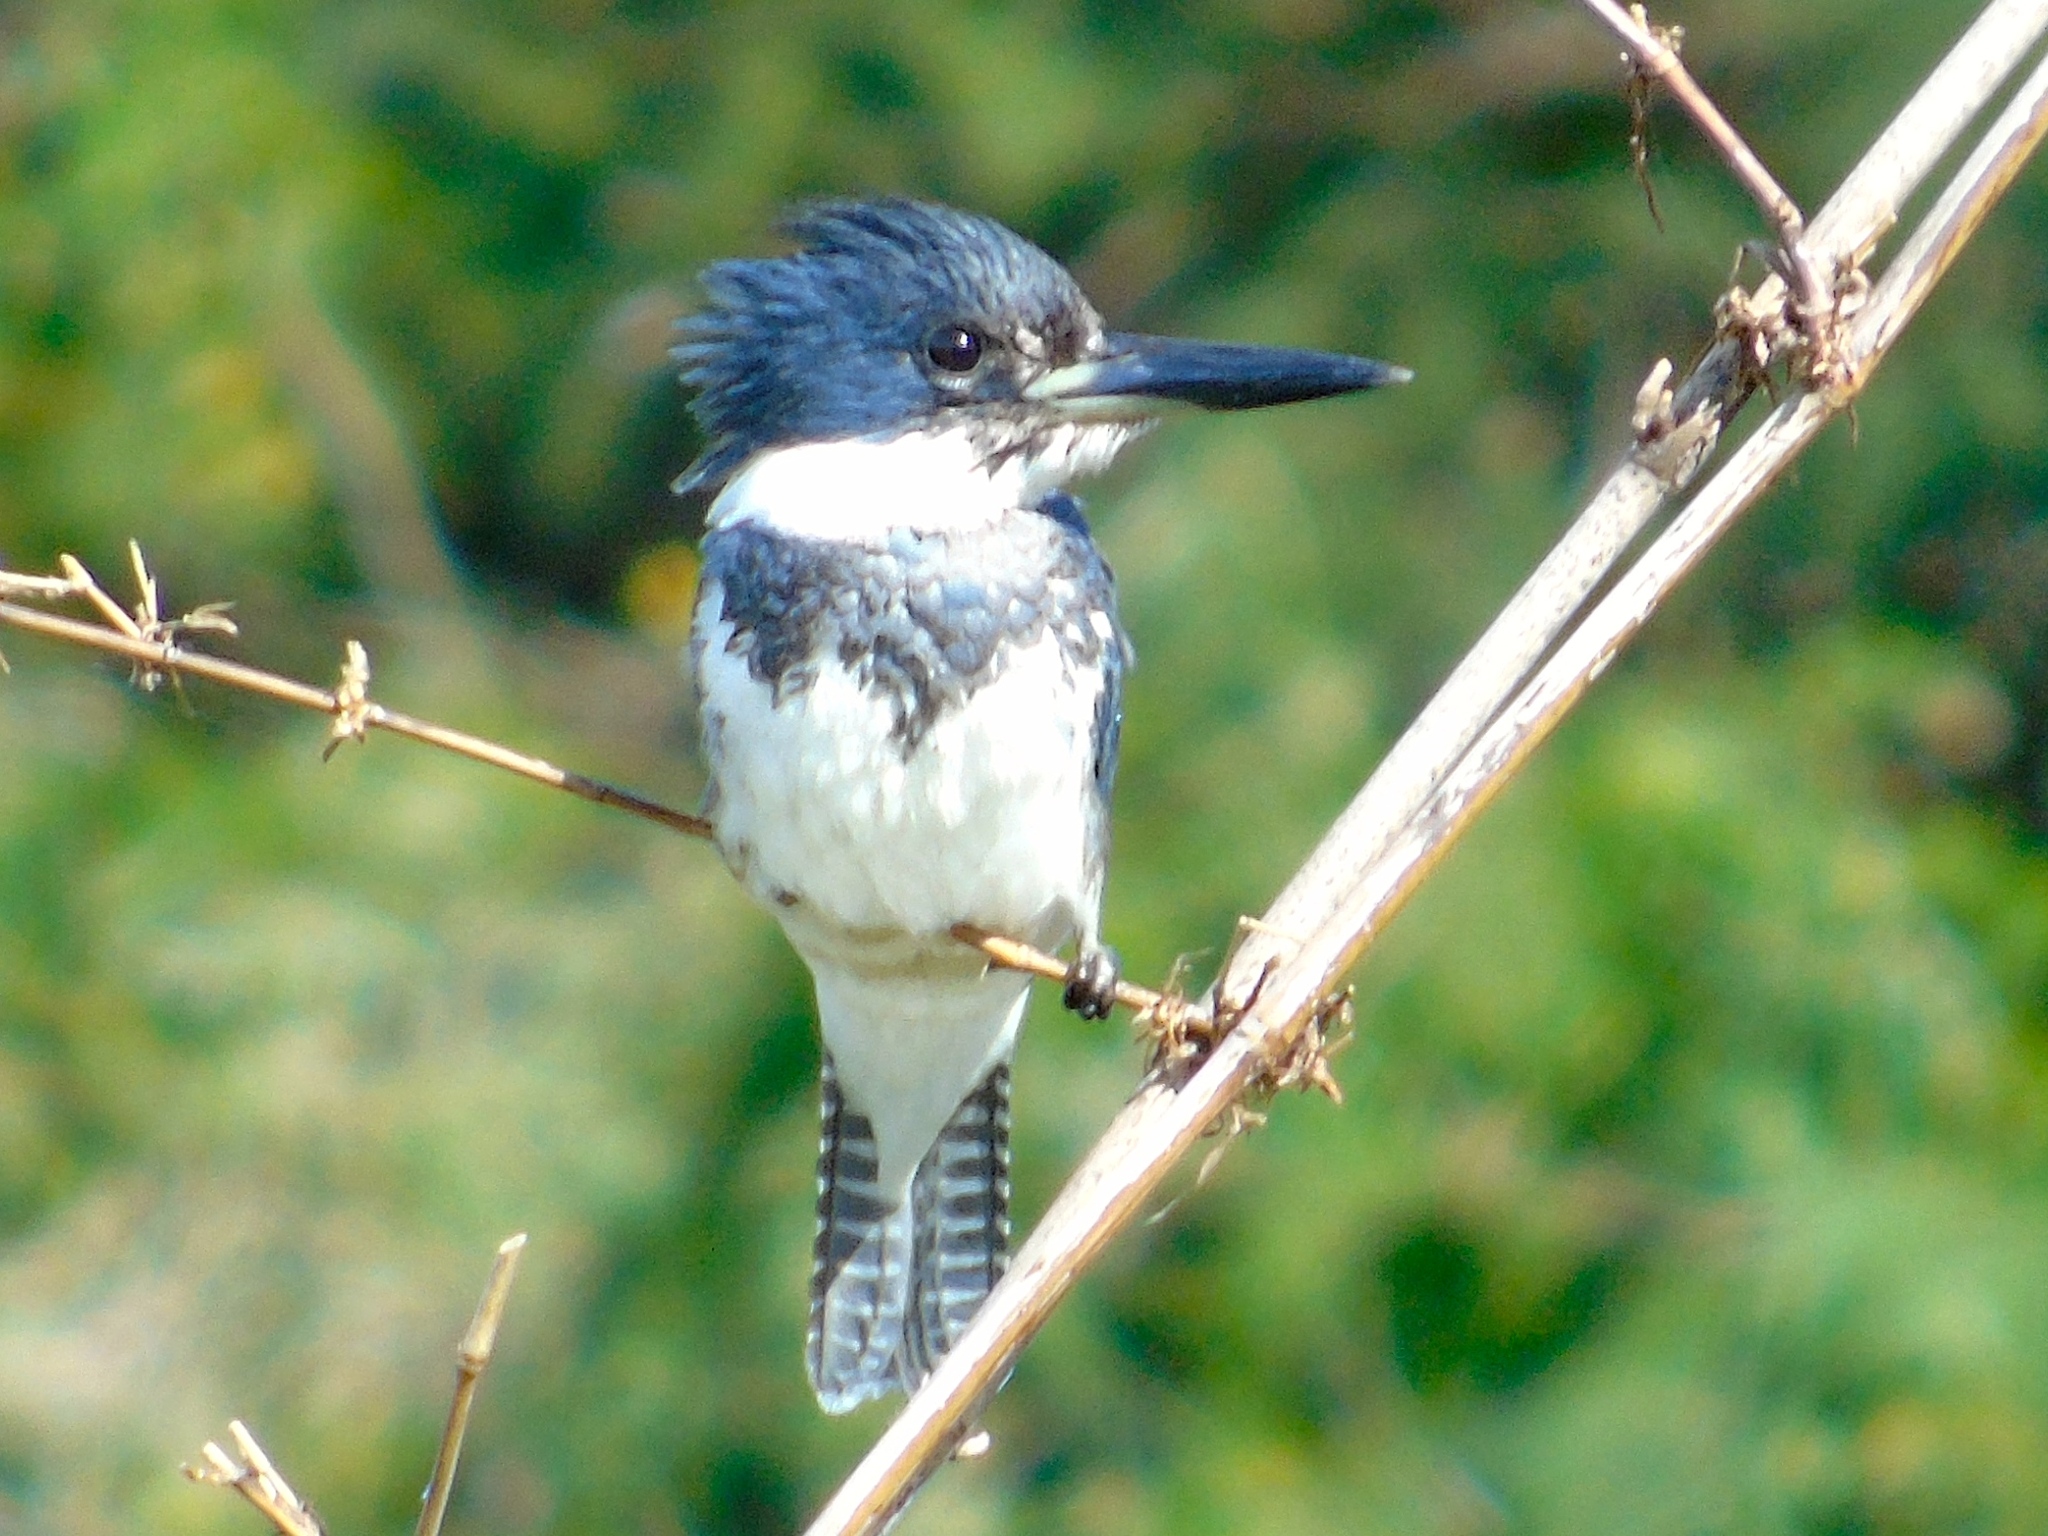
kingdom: Animalia
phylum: Chordata
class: Aves
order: Coraciiformes
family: Alcedinidae
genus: Megaceryle
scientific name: Megaceryle alcyon
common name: Belted kingfisher
